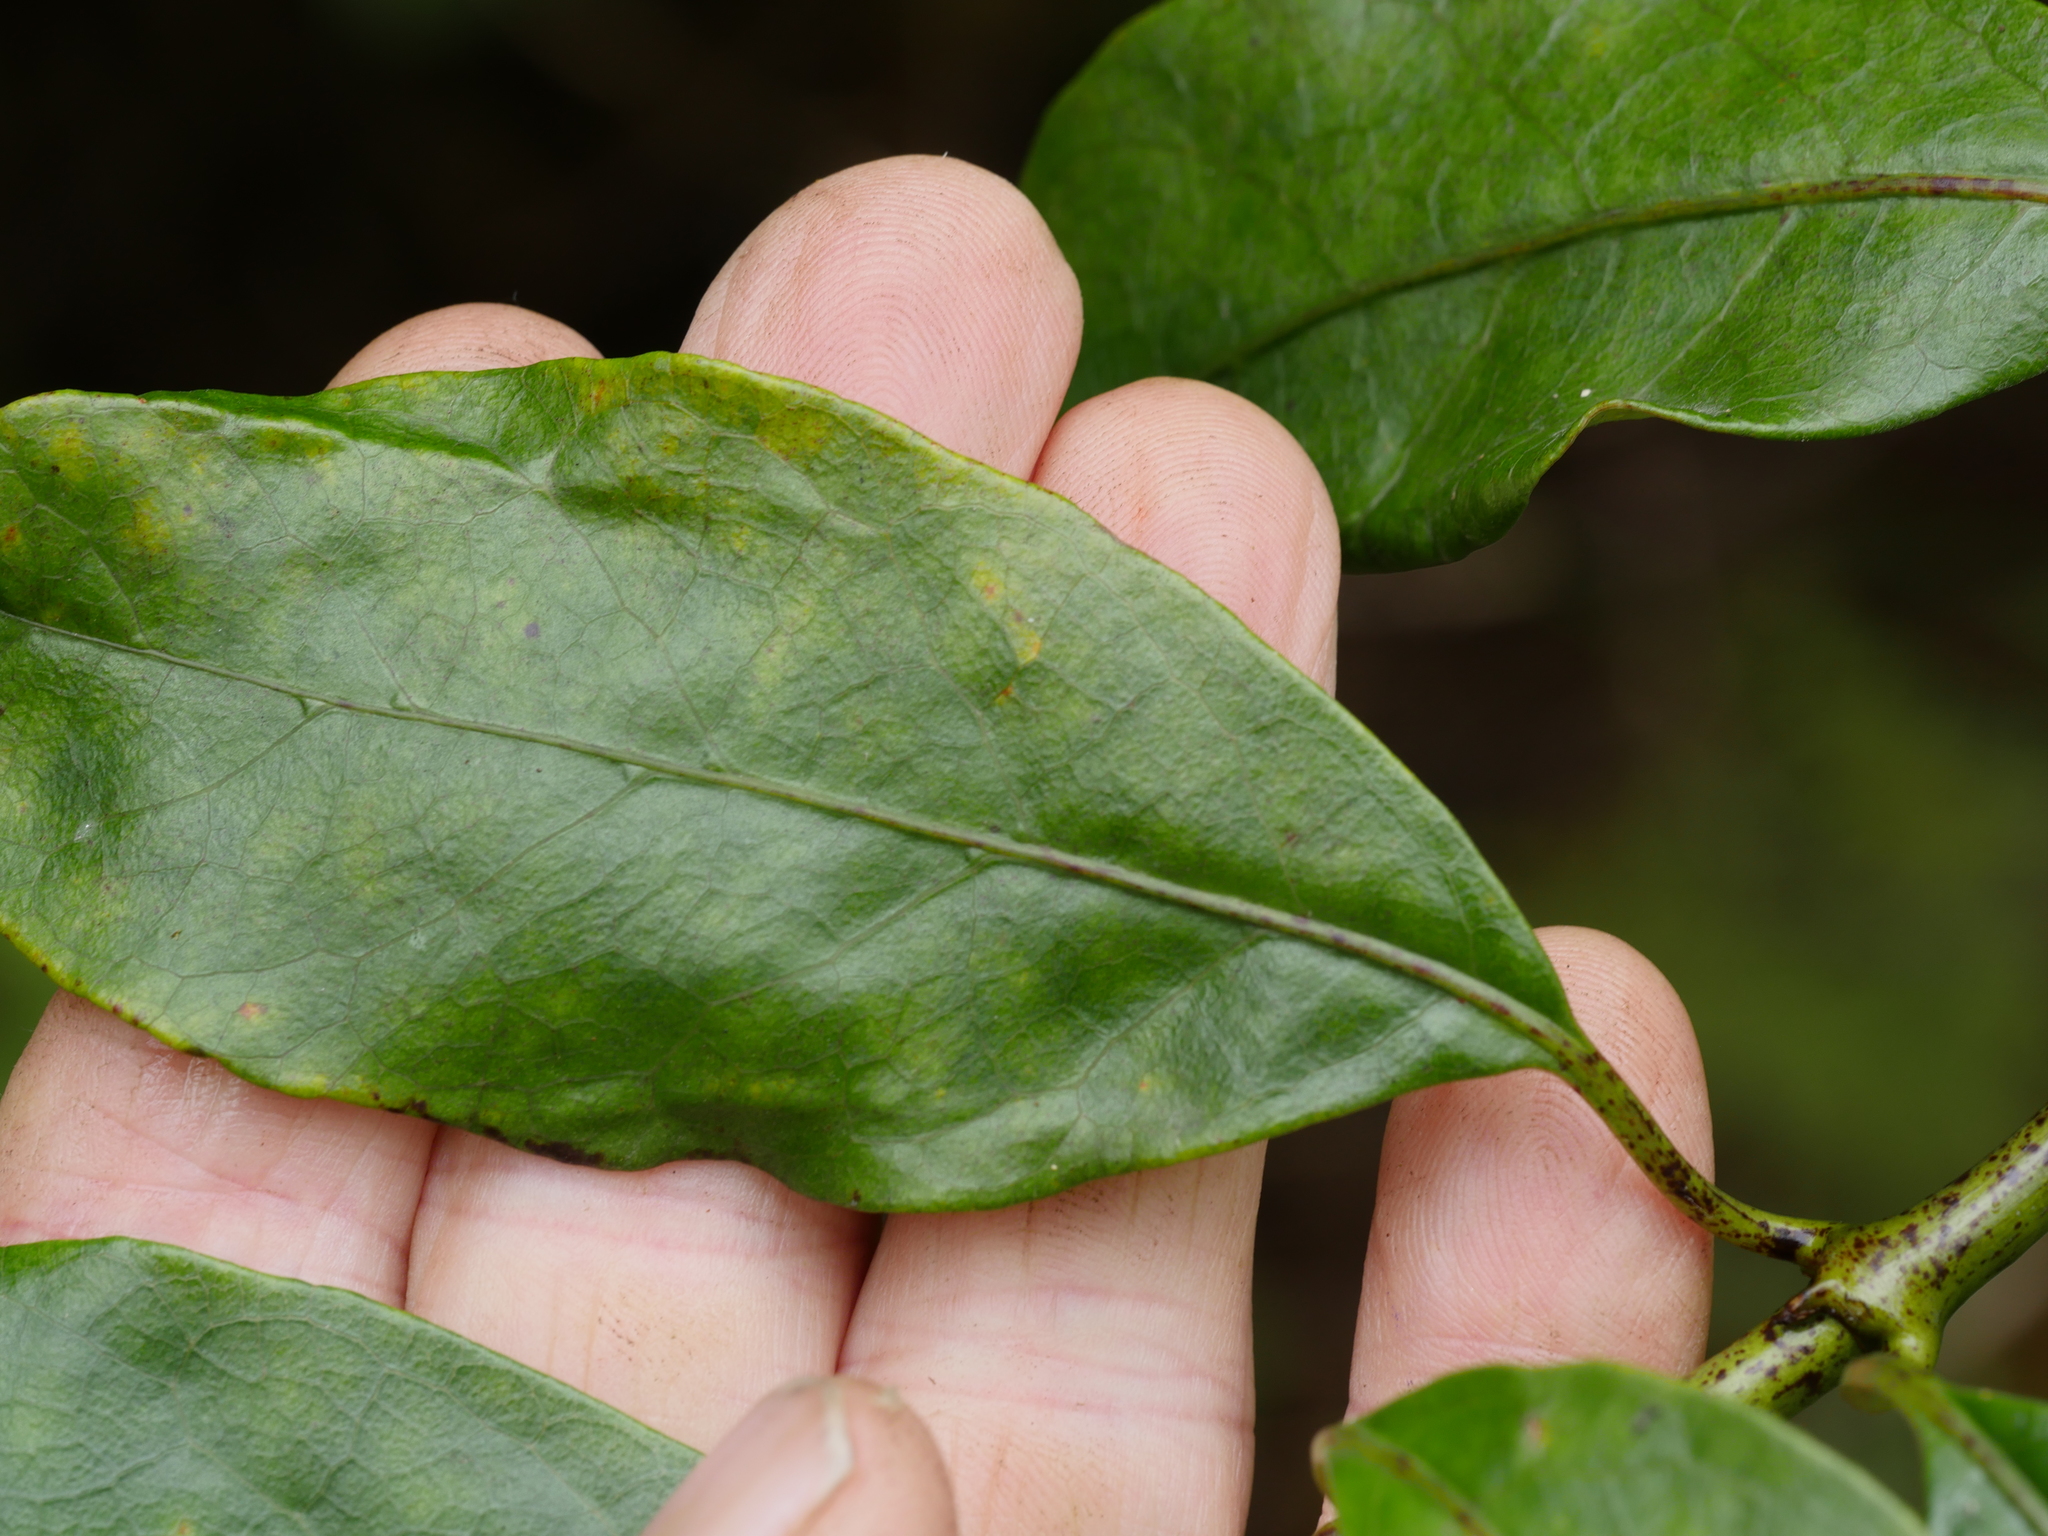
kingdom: Plantae
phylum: Tracheophyta
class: Magnoliopsida
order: Gentianales
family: Rubiaceae
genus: Coprosma
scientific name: Coprosma autumnalis
